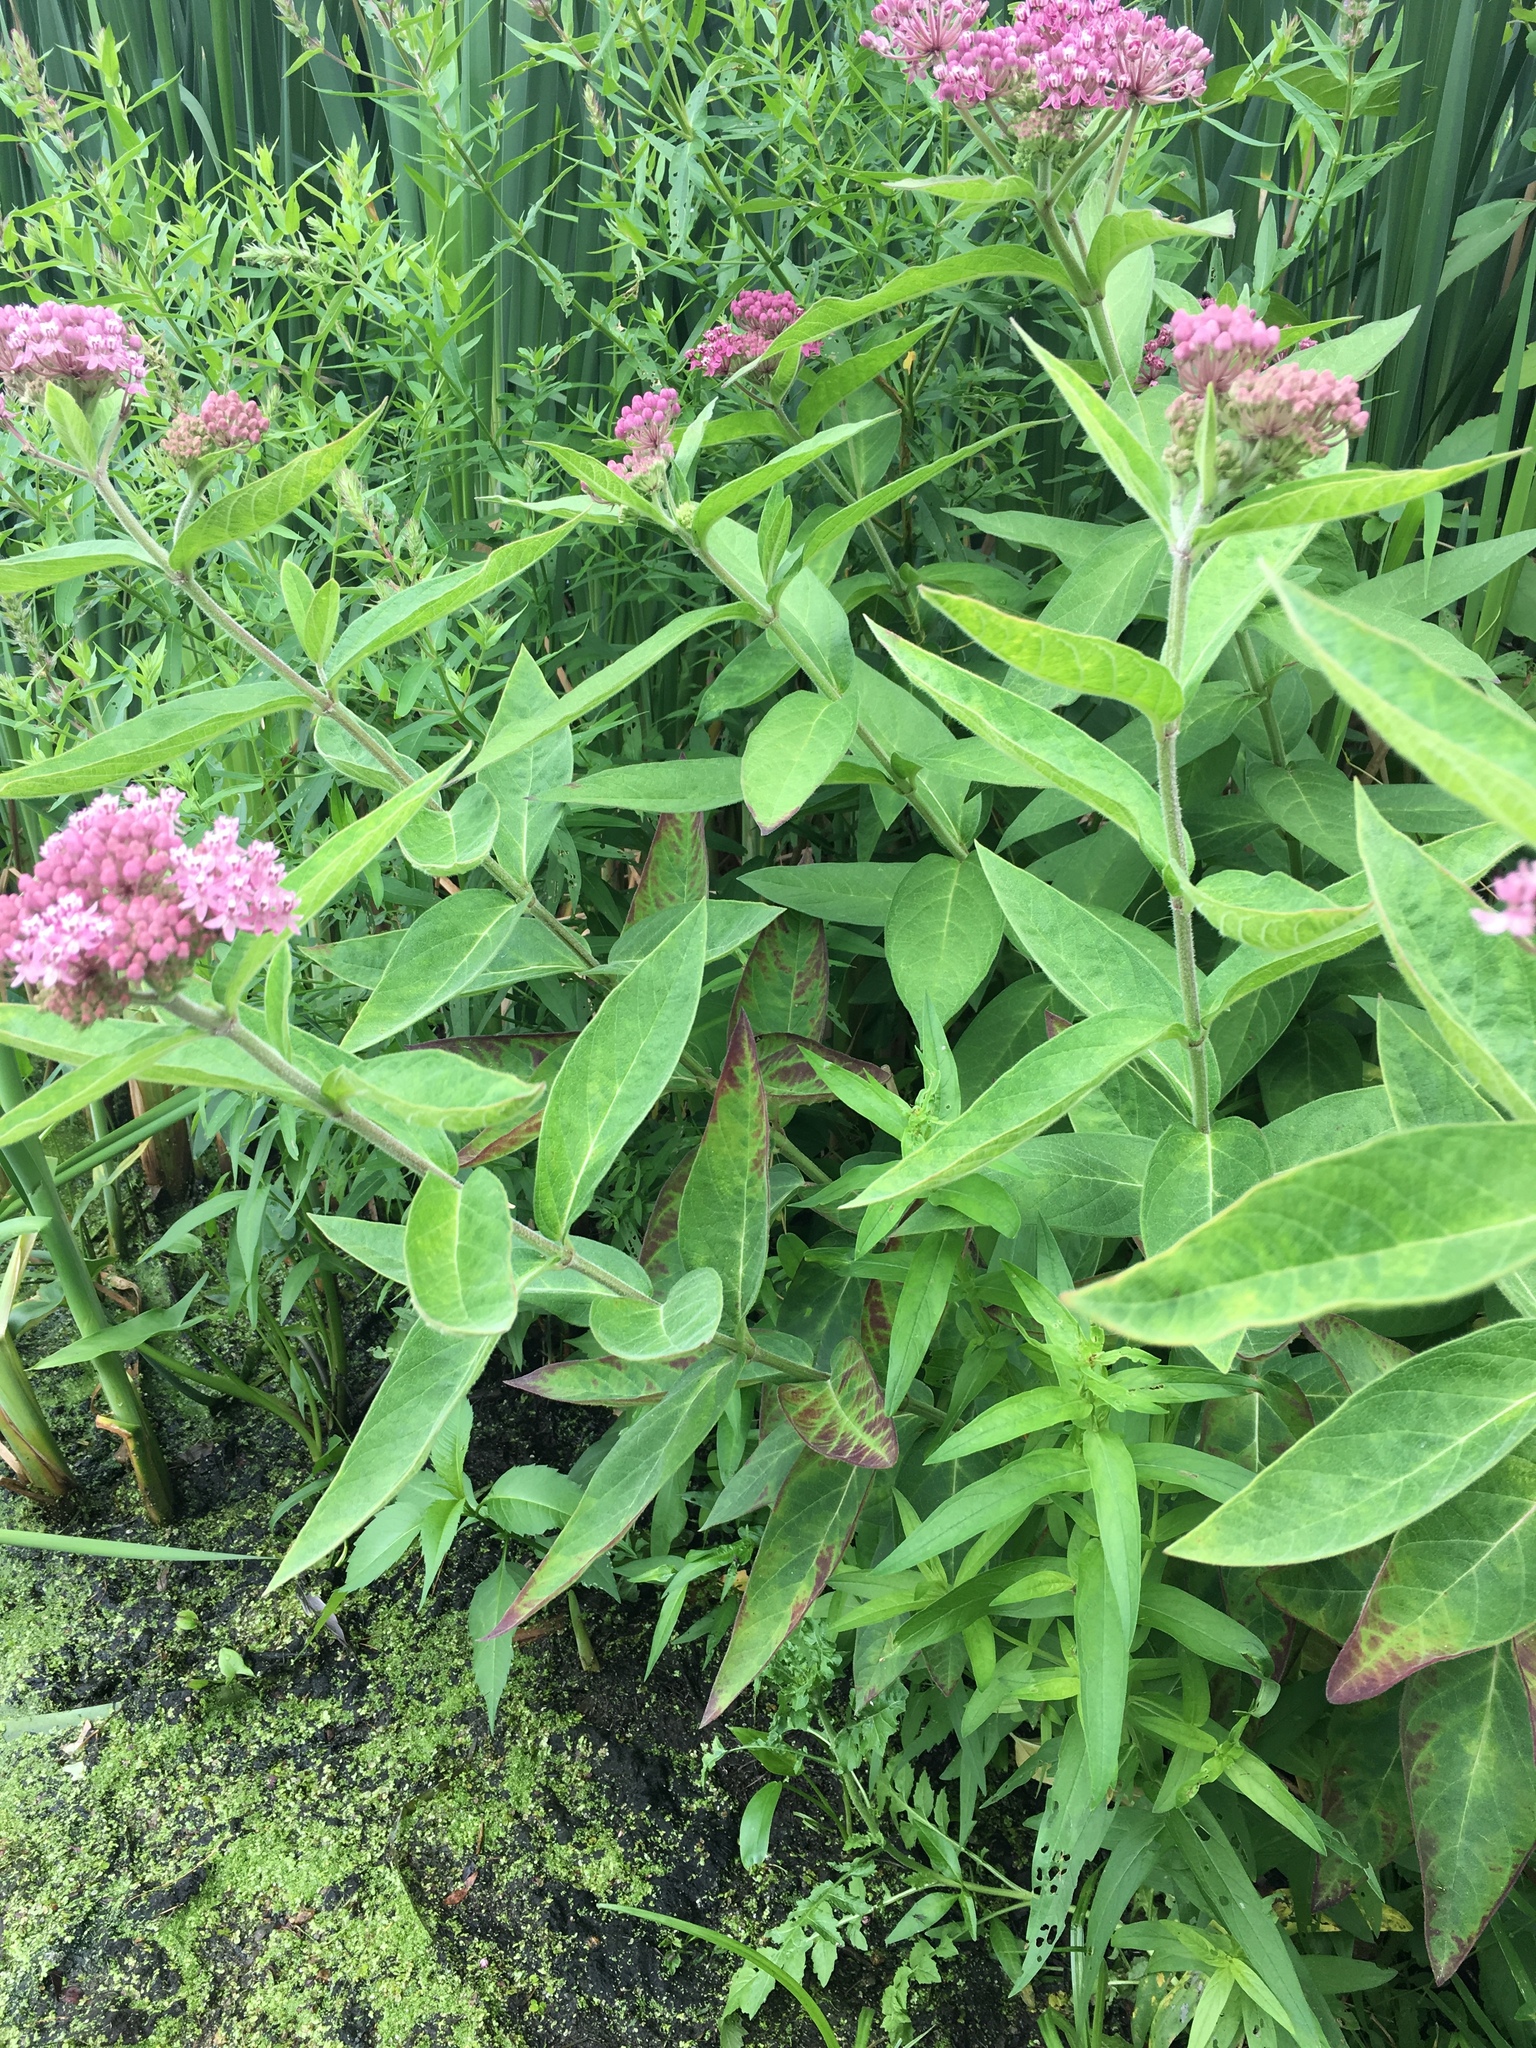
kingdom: Plantae
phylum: Tracheophyta
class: Magnoliopsida
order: Gentianales
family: Apocynaceae
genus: Asclepias
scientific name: Asclepias incarnata
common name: Swamp milkweed
